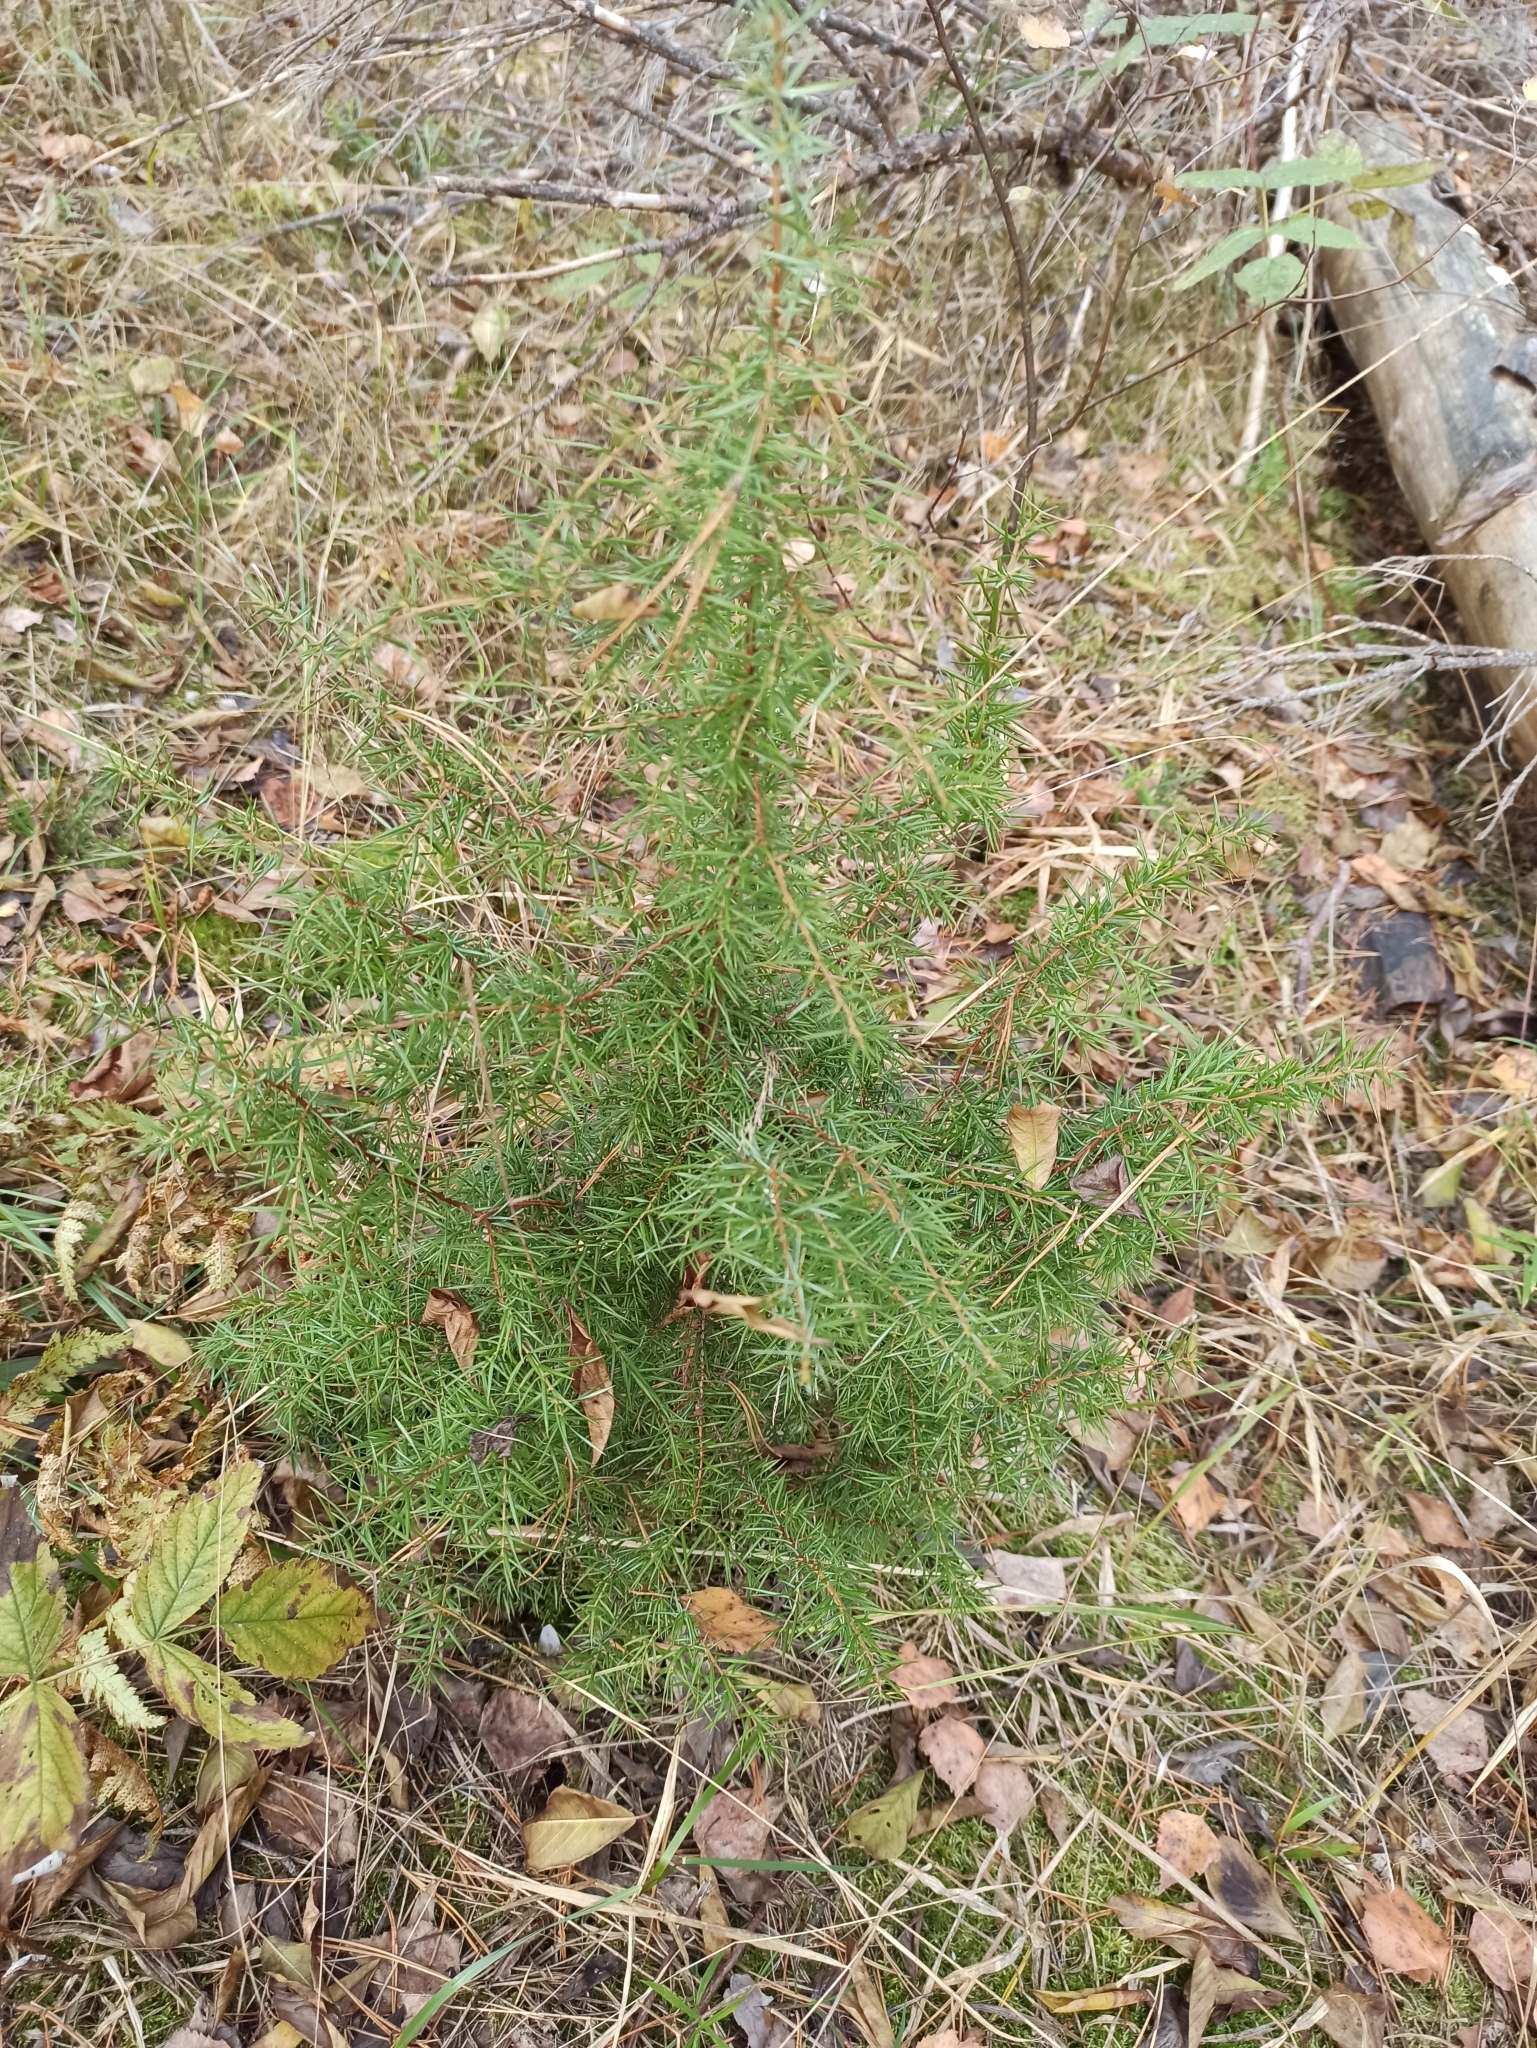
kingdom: Plantae
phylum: Tracheophyta
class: Pinopsida
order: Pinales
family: Cupressaceae
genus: Juniperus
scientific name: Juniperus communis
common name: Common juniper
